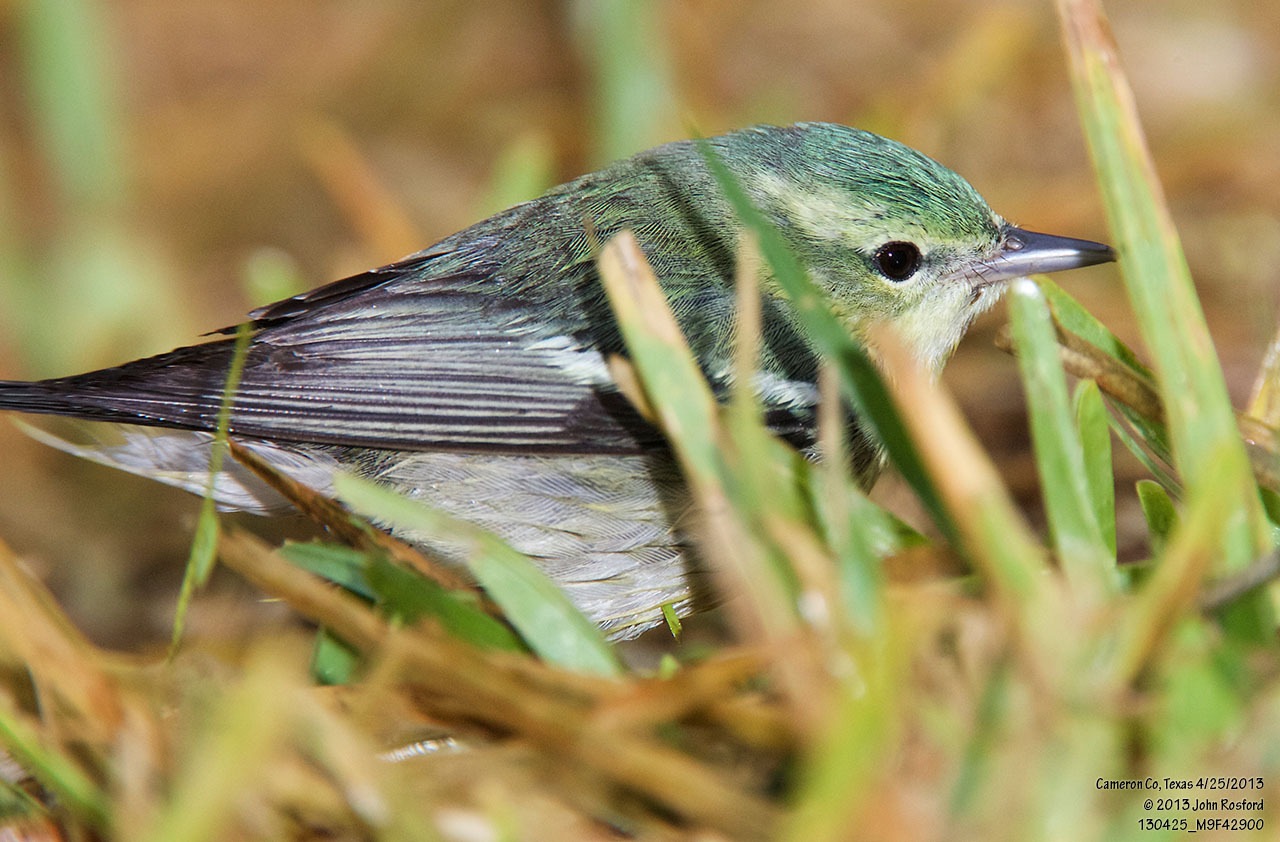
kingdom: Animalia
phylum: Chordata
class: Aves
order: Passeriformes
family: Parulidae
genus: Setophaga
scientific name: Setophaga cerulea
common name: Cerulean warbler
